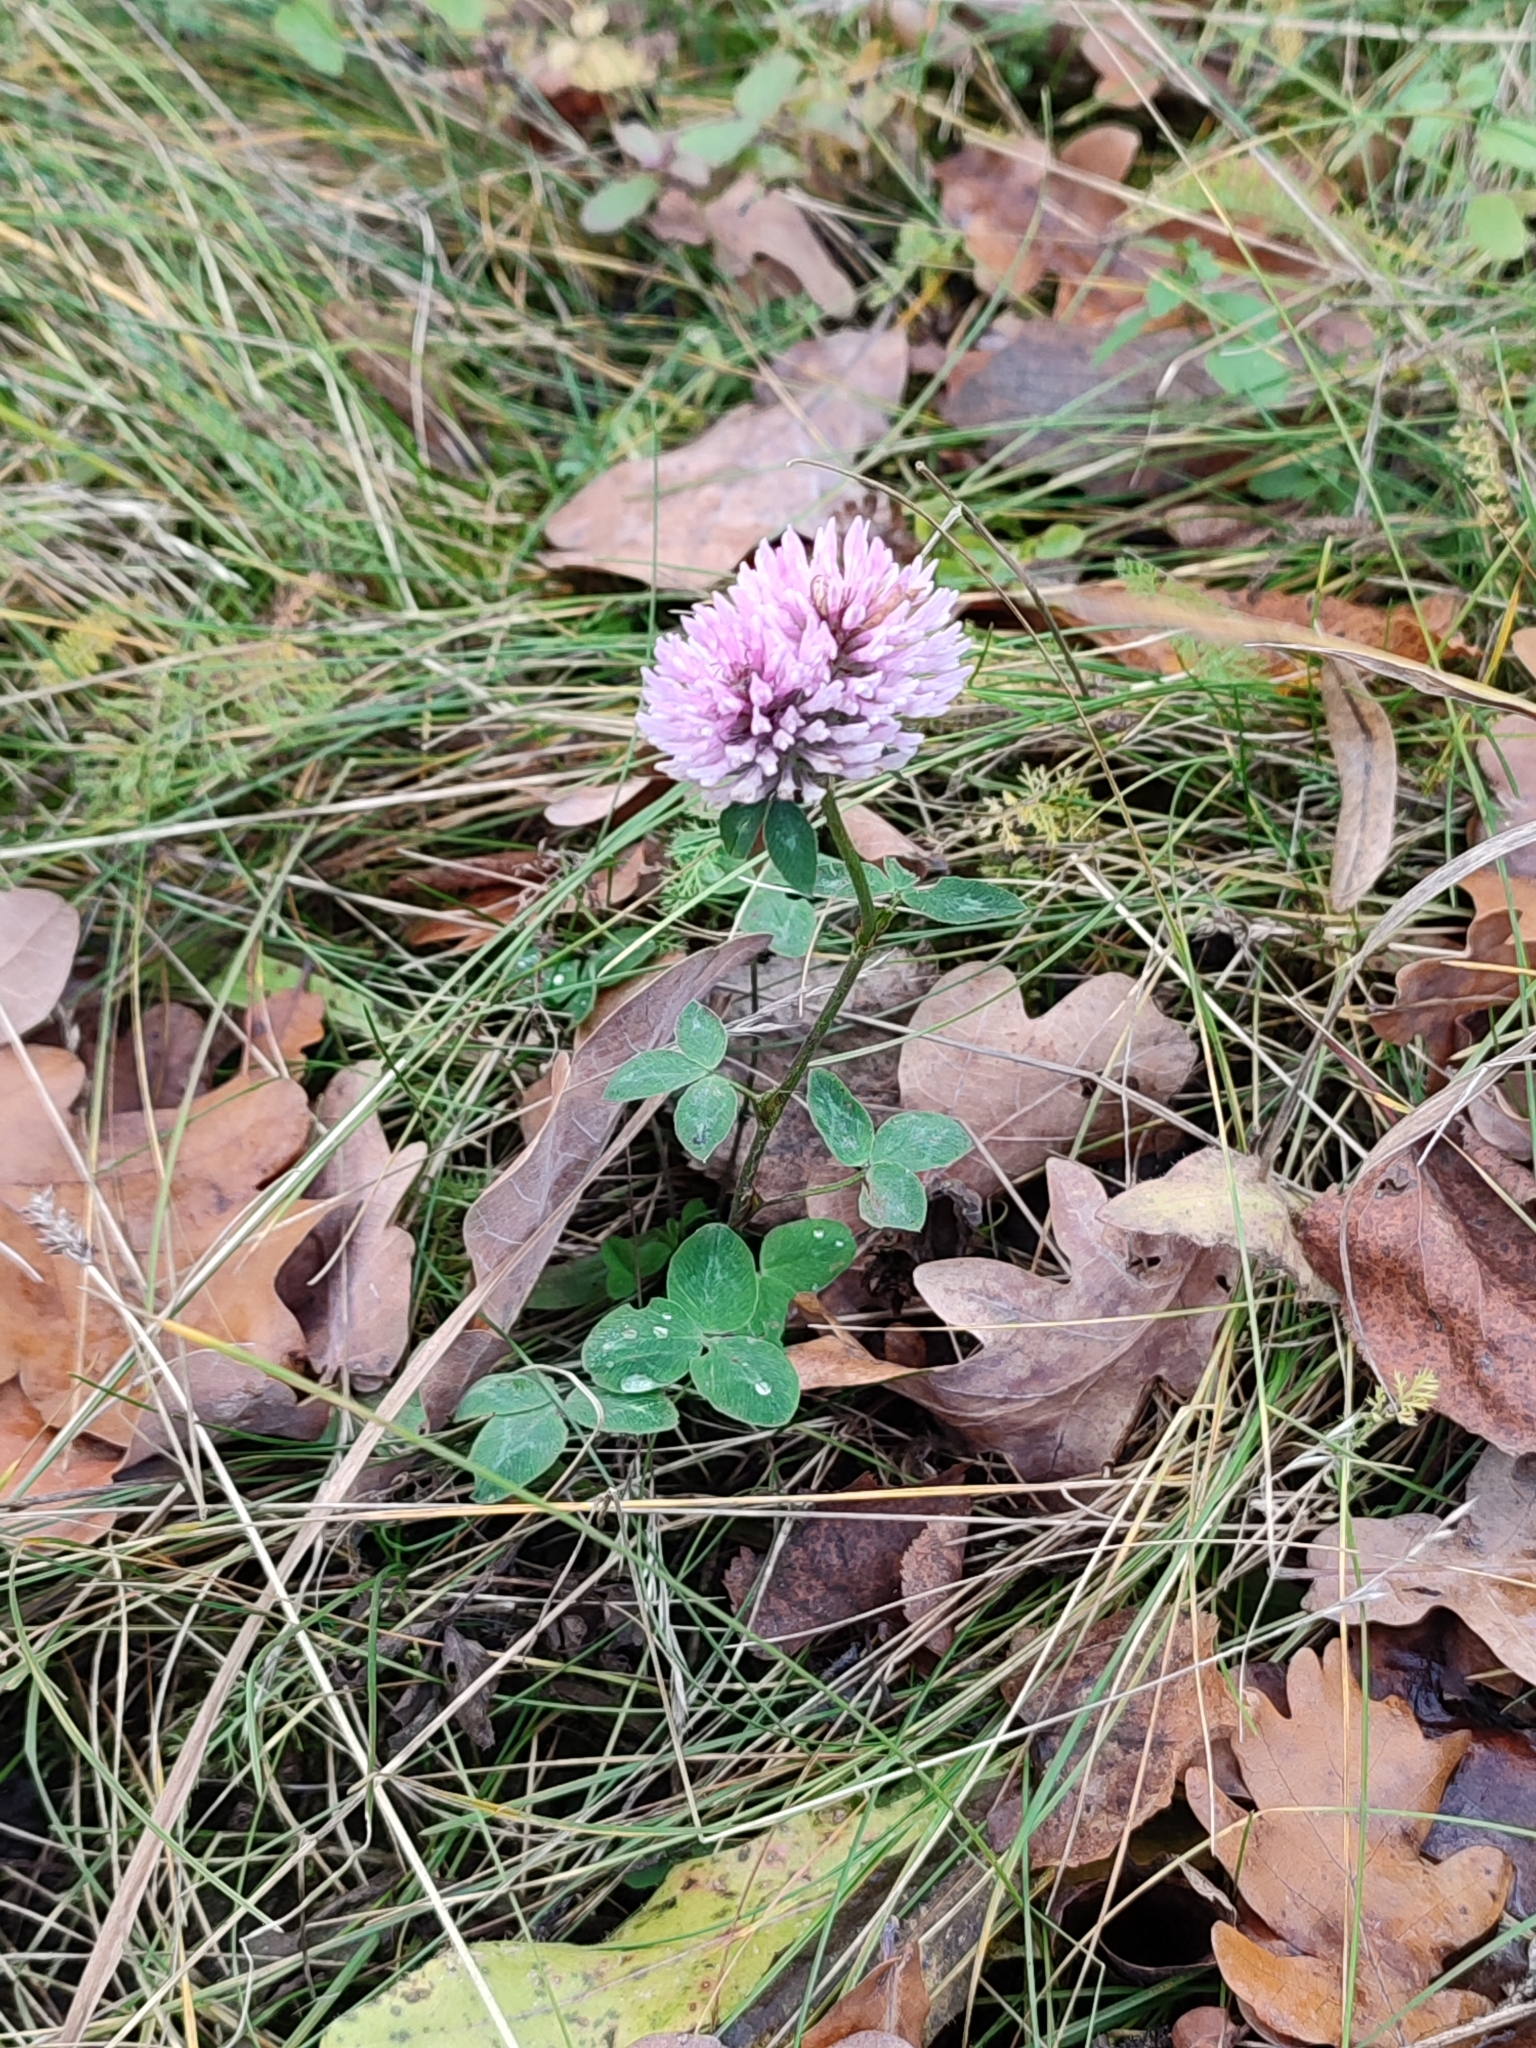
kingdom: Plantae
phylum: Tracheophyta
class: Magnoliopsida
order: Fabales
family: Fabaceae
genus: Trifolium
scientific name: Trifolium pratense
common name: Red clover
